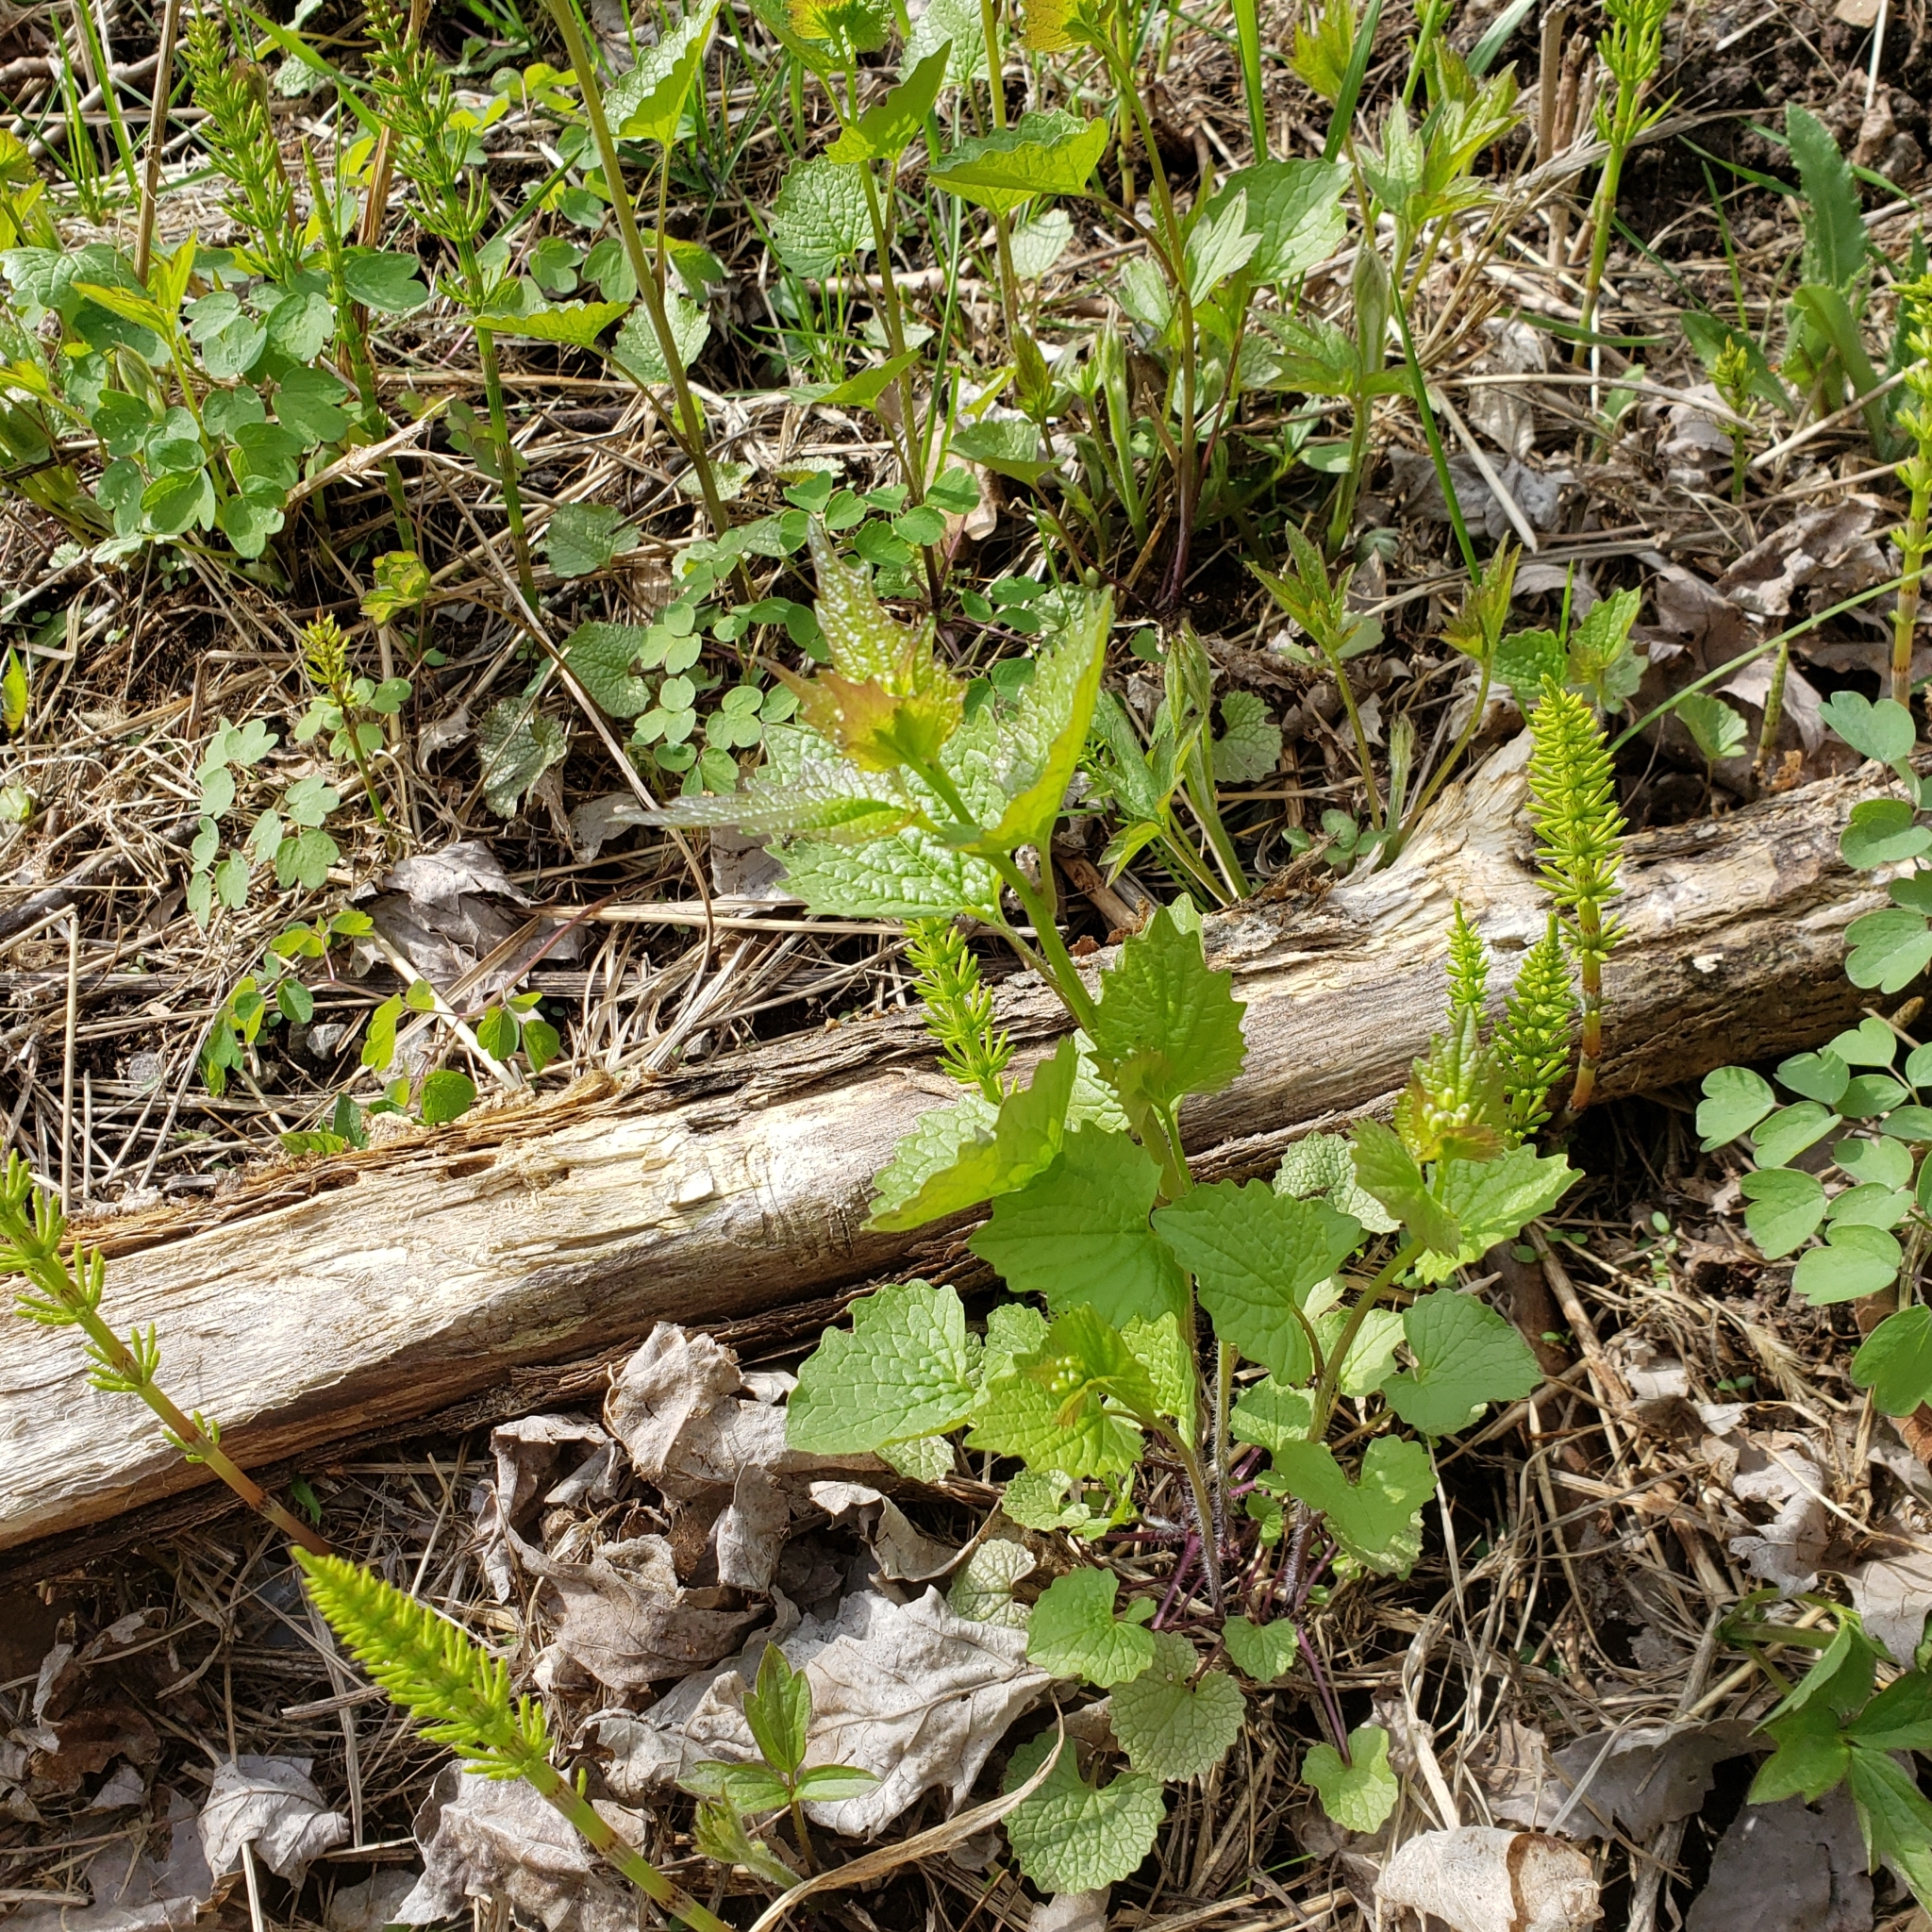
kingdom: Plantae
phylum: Tracheophyta
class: Magnoliopsida
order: Brassicales
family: Brassicaceae
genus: Alliaria
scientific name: Alliaria petiolata
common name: Garlic mustard
